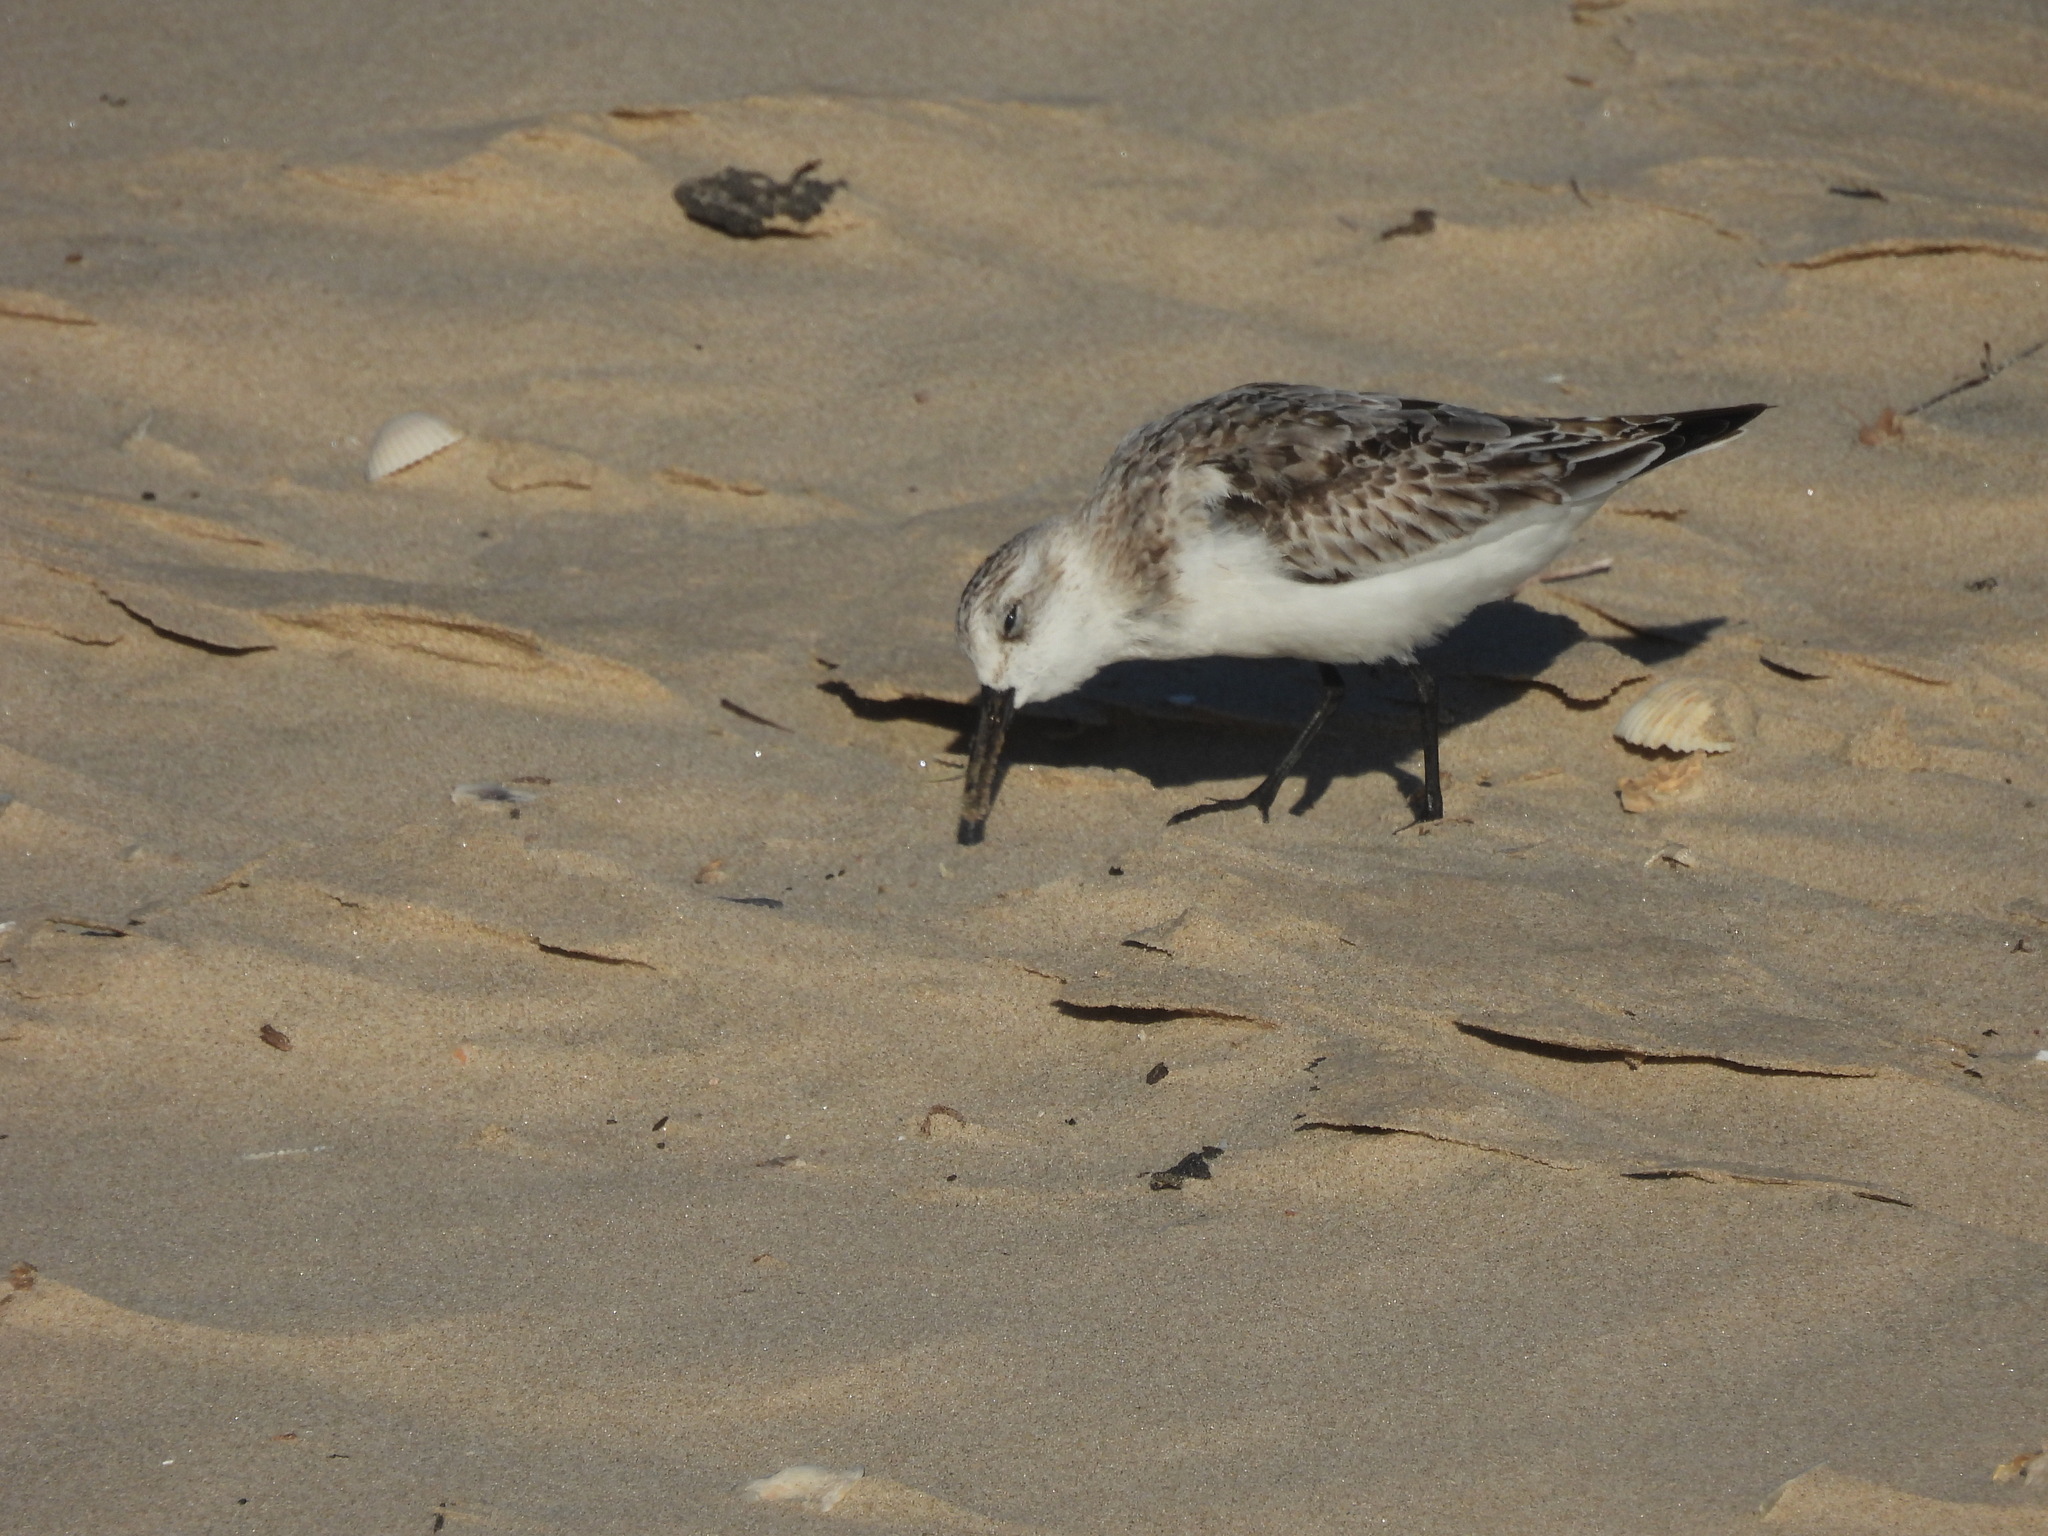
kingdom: Animalia
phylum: Chordata
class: Aves
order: Charadriiformes
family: Scolopacidae
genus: Calidris
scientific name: Calidris alba
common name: Sanderling
